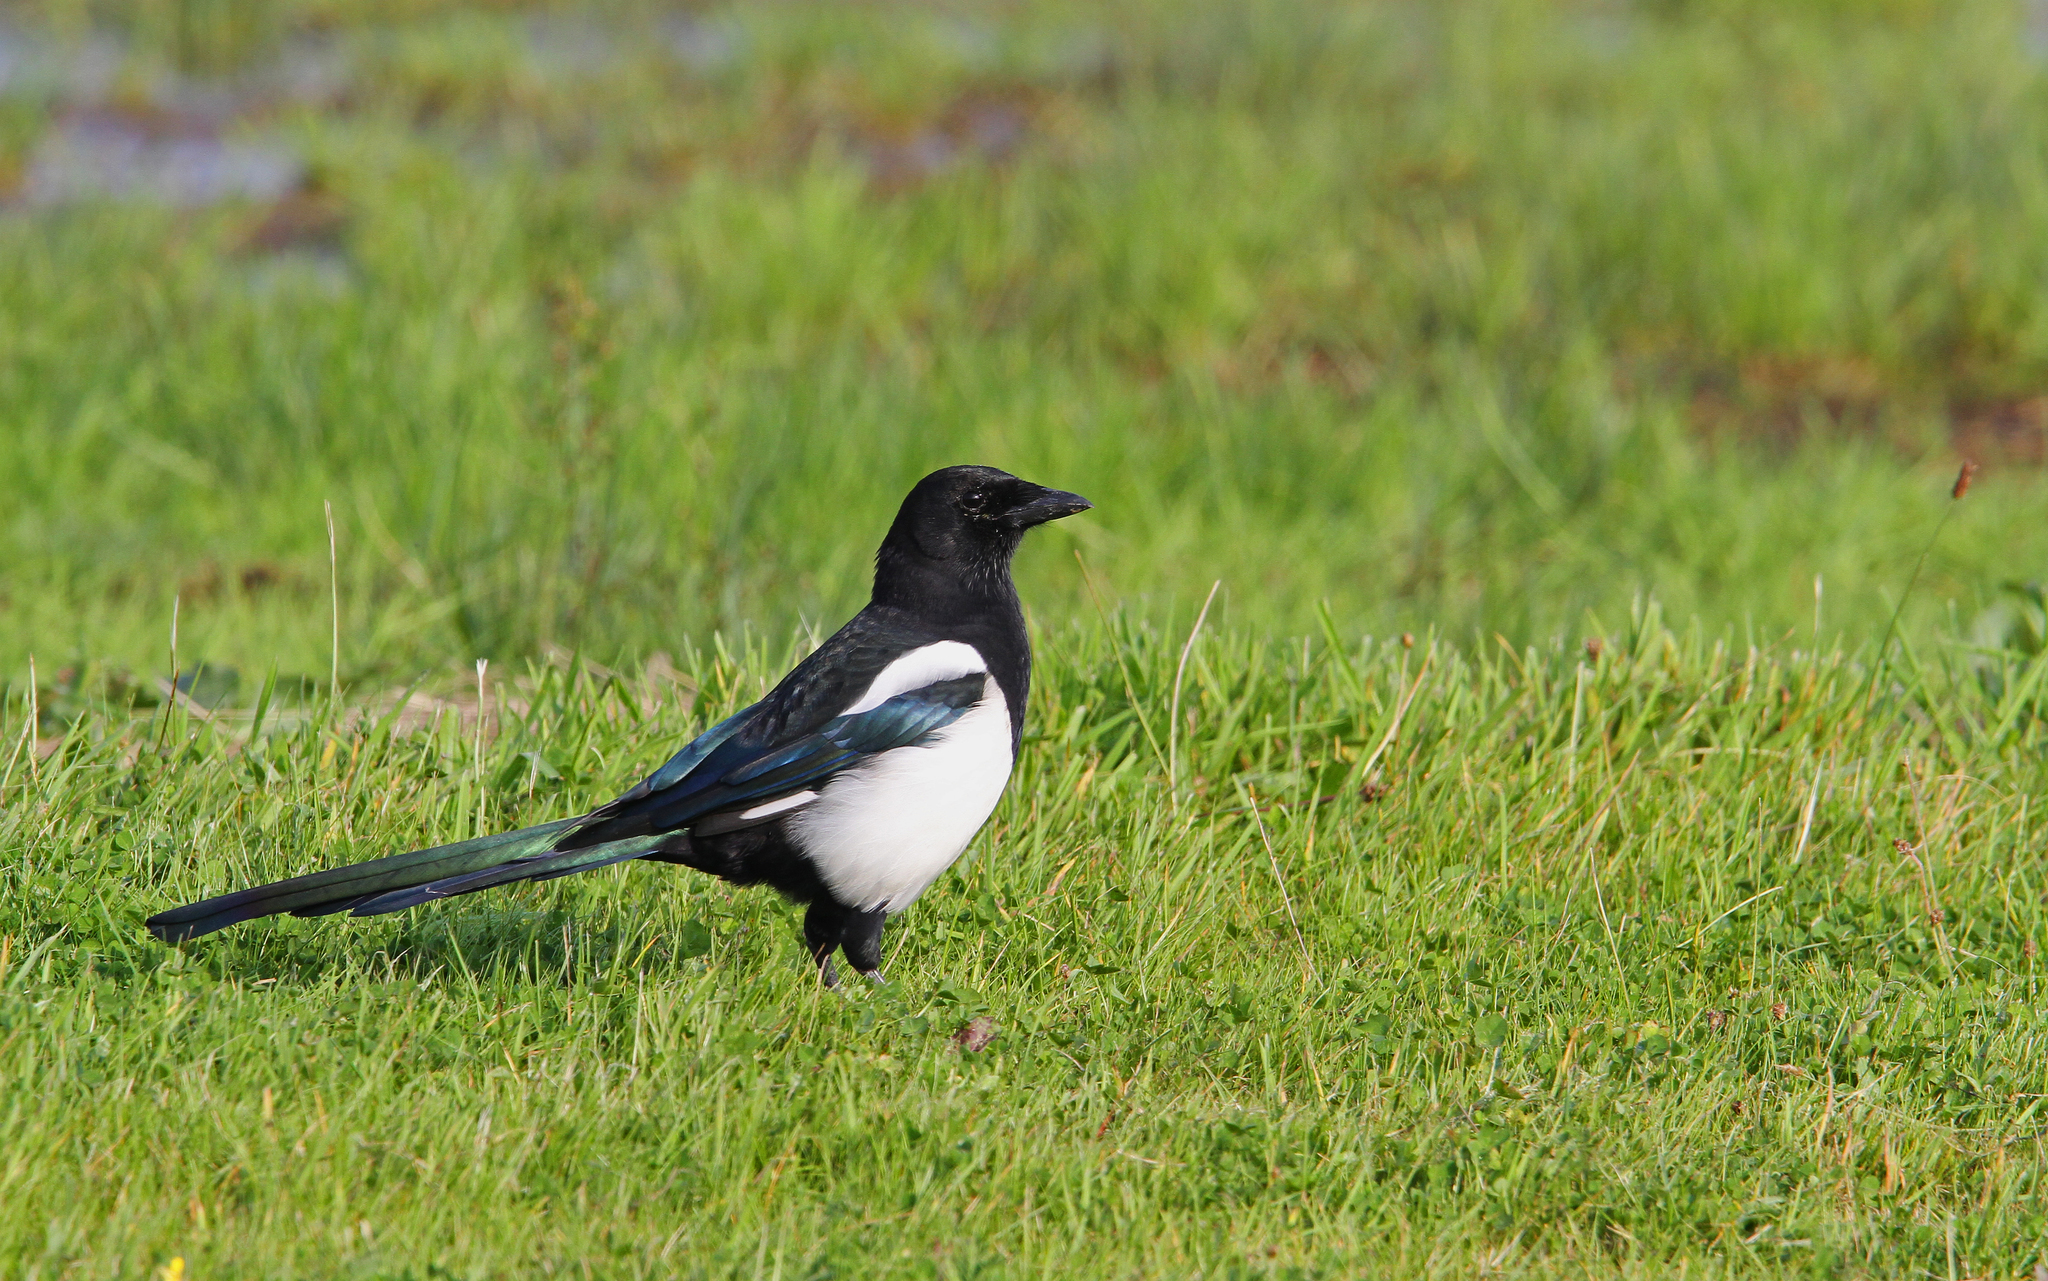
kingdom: Animalia
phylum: Chordata
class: Aves
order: Passeriformes
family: Corvidae
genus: Pica
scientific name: Pica pica
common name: Eurasian magpie
